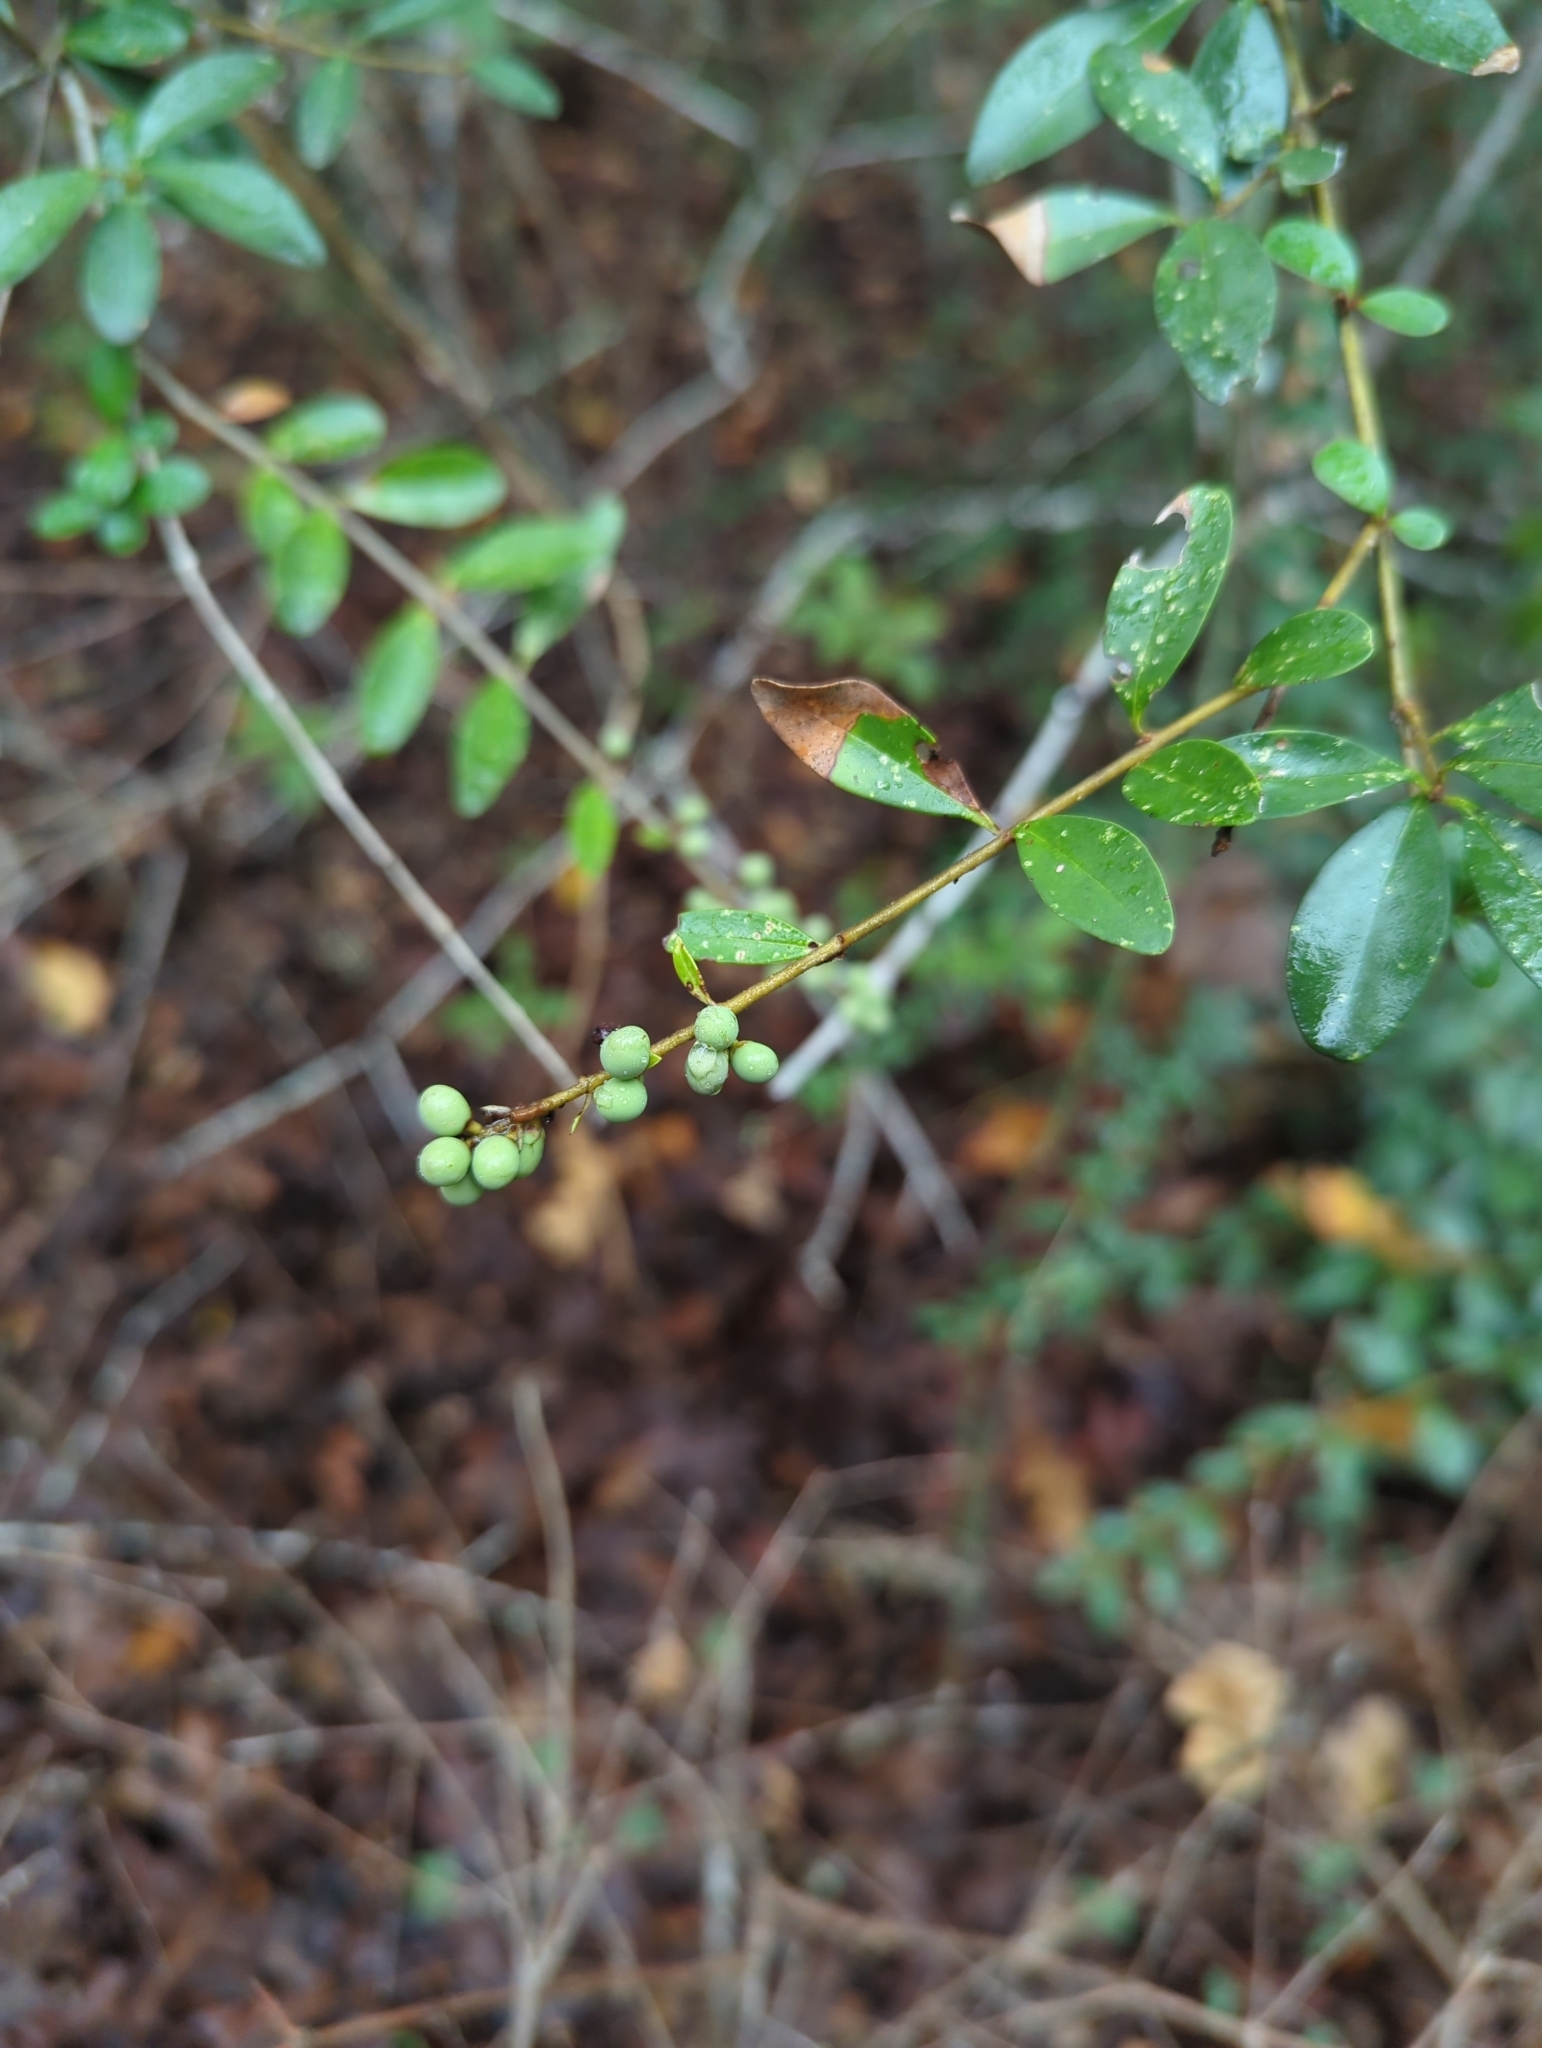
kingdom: Plantae
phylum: Tracheophyta
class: Magnoliopsida
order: Lamiales
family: Oleaceae
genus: Ligustrum
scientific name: Ligustrum quihoui
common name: Waxyleaf privet
